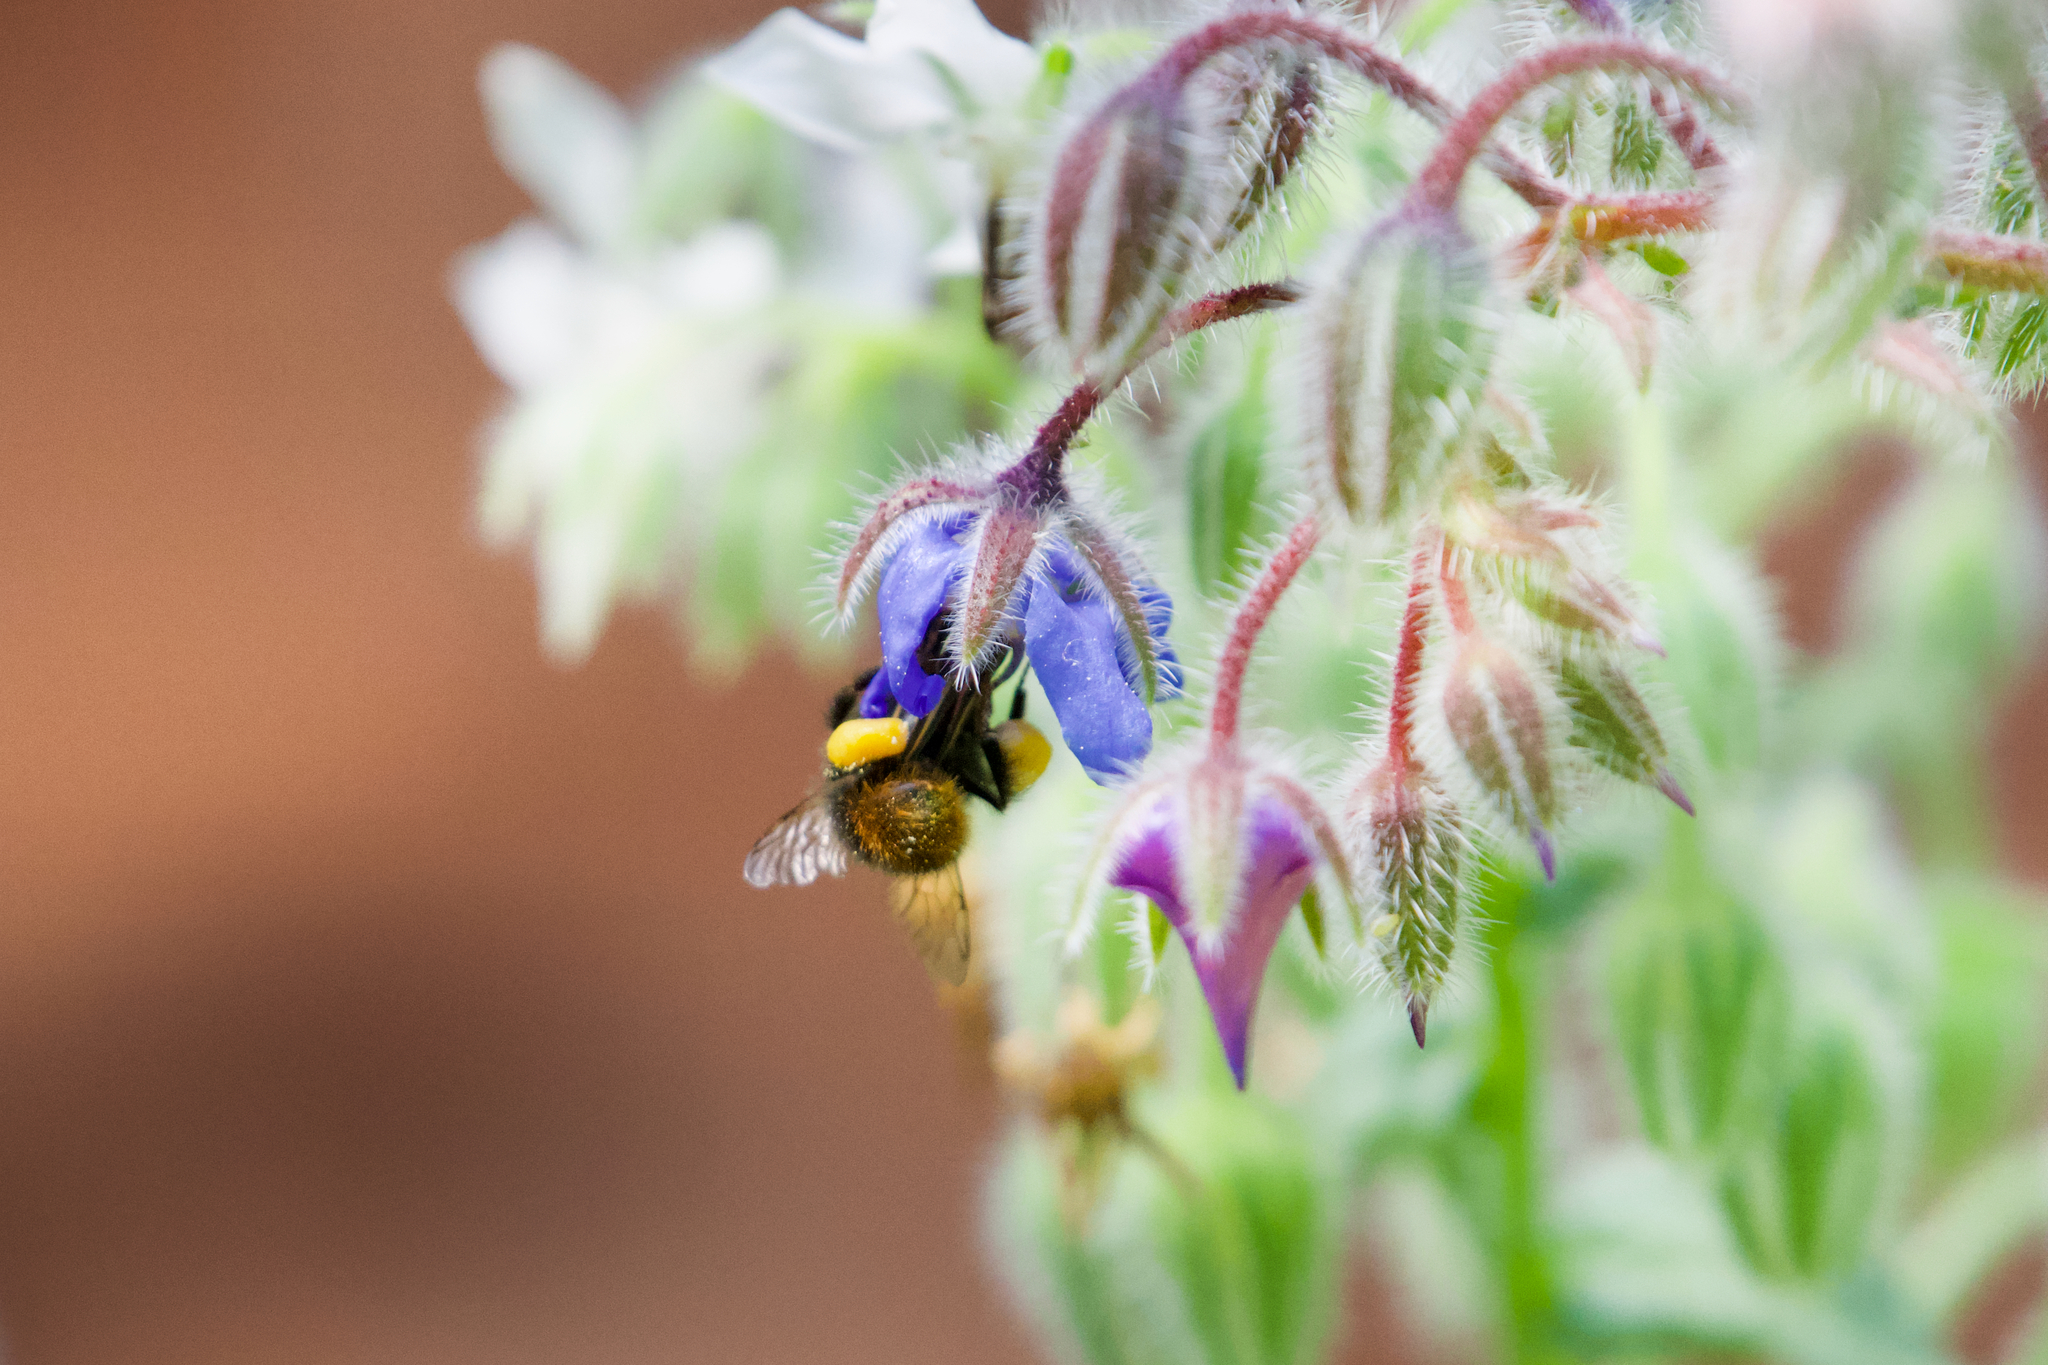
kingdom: Animalia
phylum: Arthropoda
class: Insecta
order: Hymenoptera
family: Apidae
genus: Bombus
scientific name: Bombus pratorum
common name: Early humble-bee
